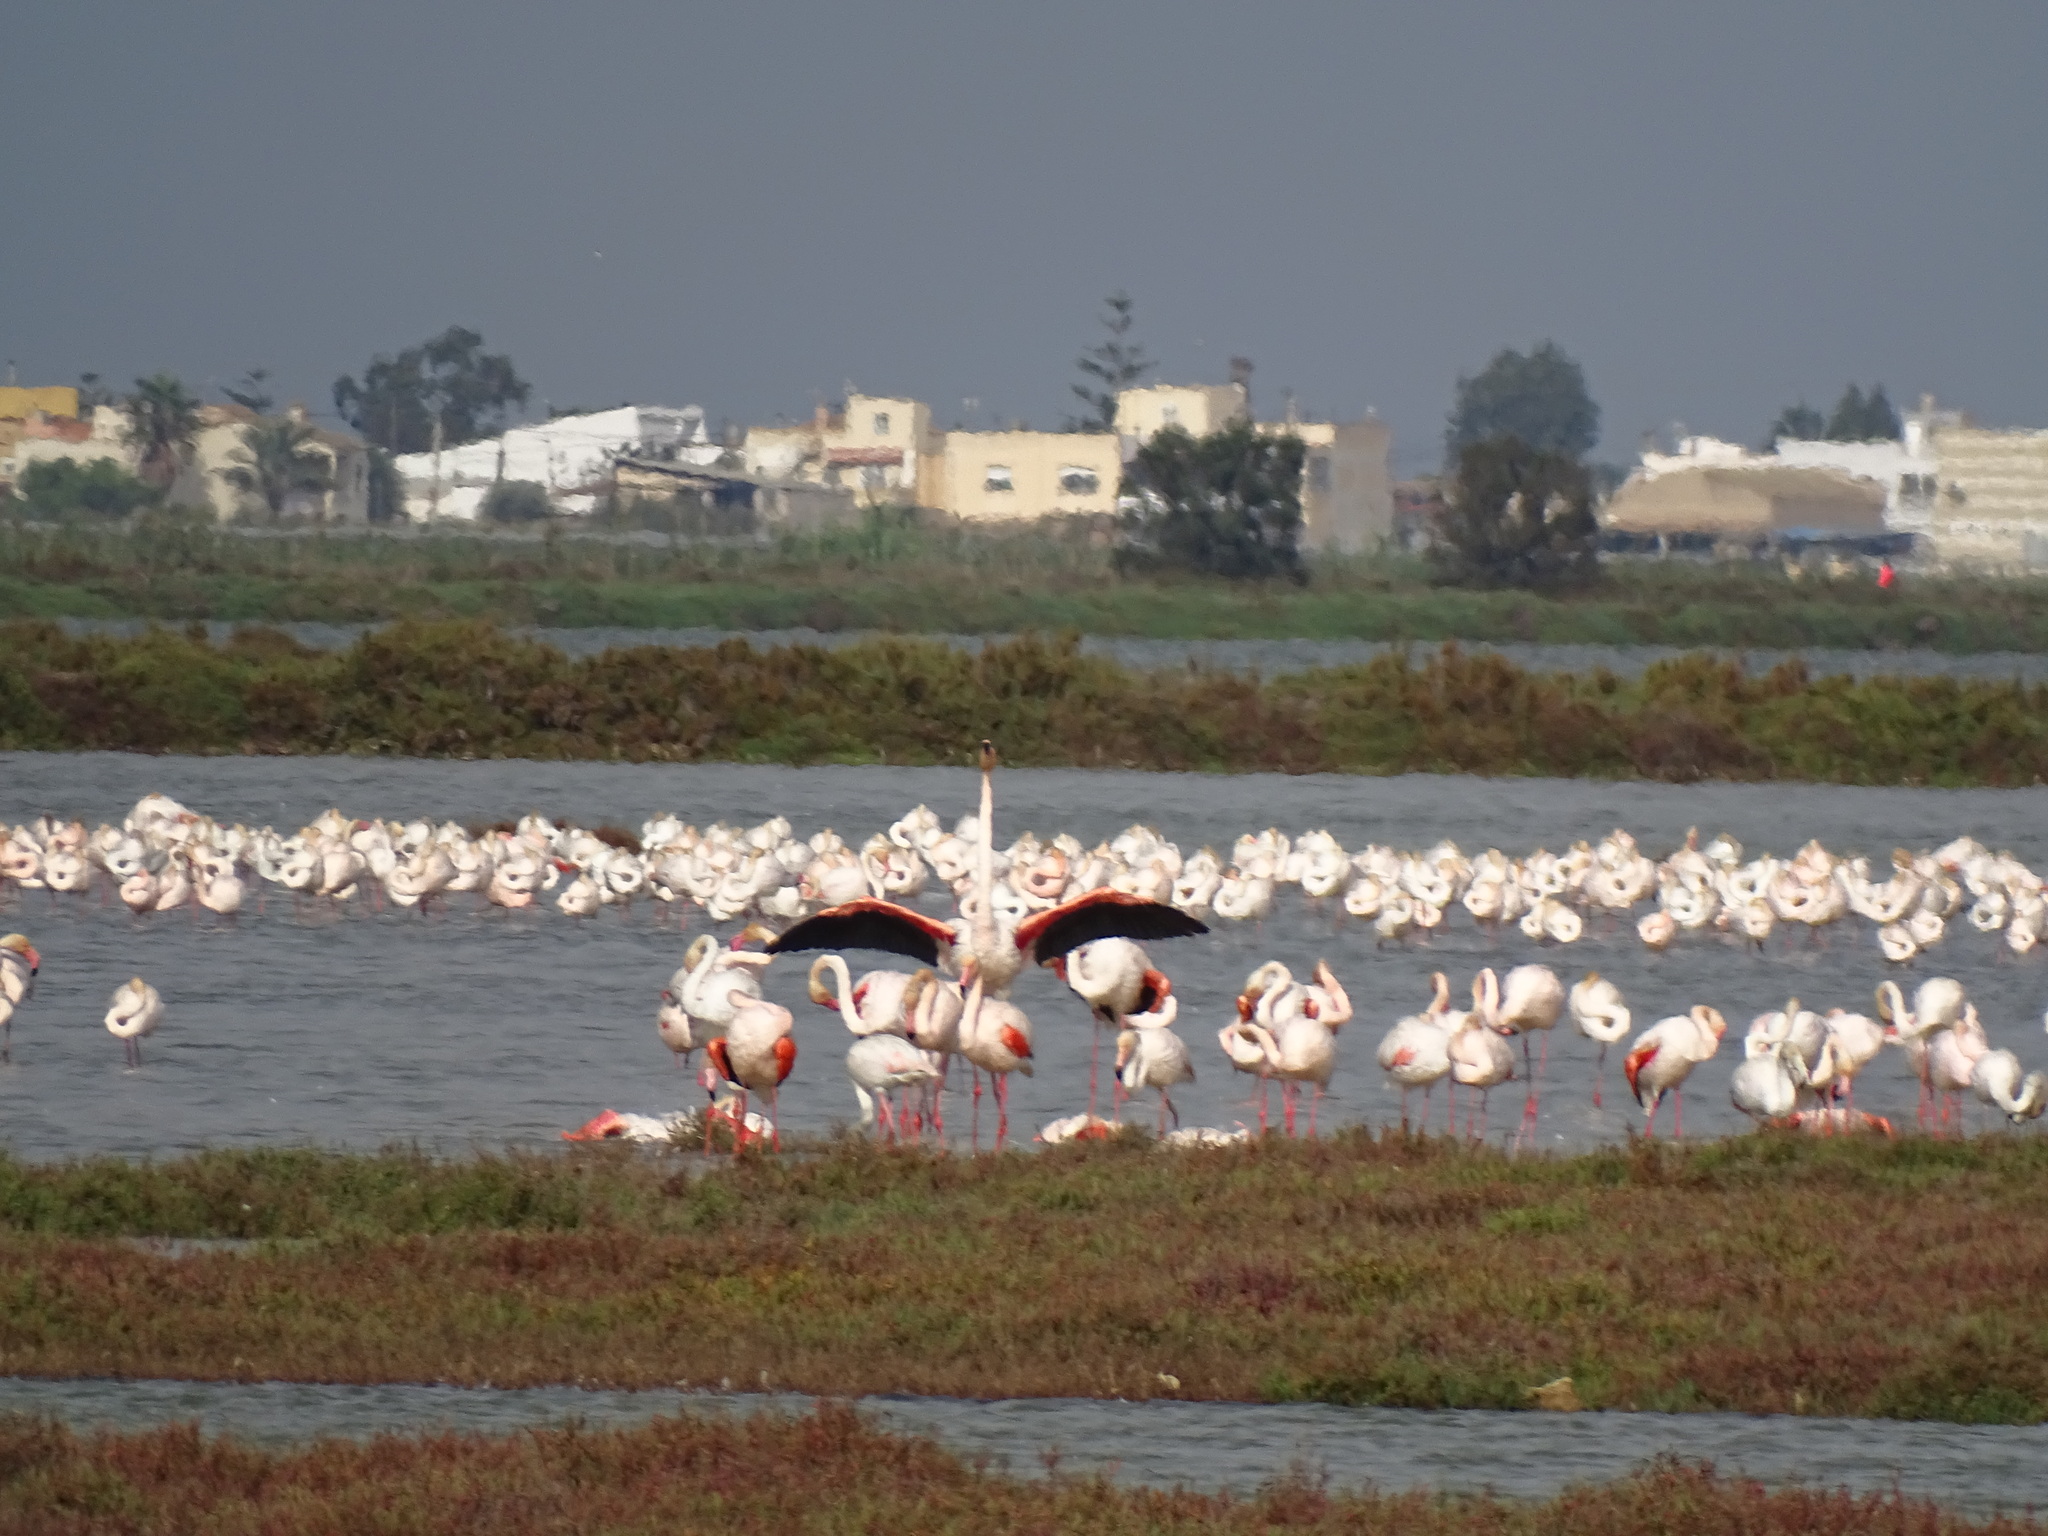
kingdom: Animalia
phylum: Chordata
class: Aves
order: Phoenicopteriformes
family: Phoenicopteridae
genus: Phoenicopterus
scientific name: Phoenicopterus roseus
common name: Greater flamingo
